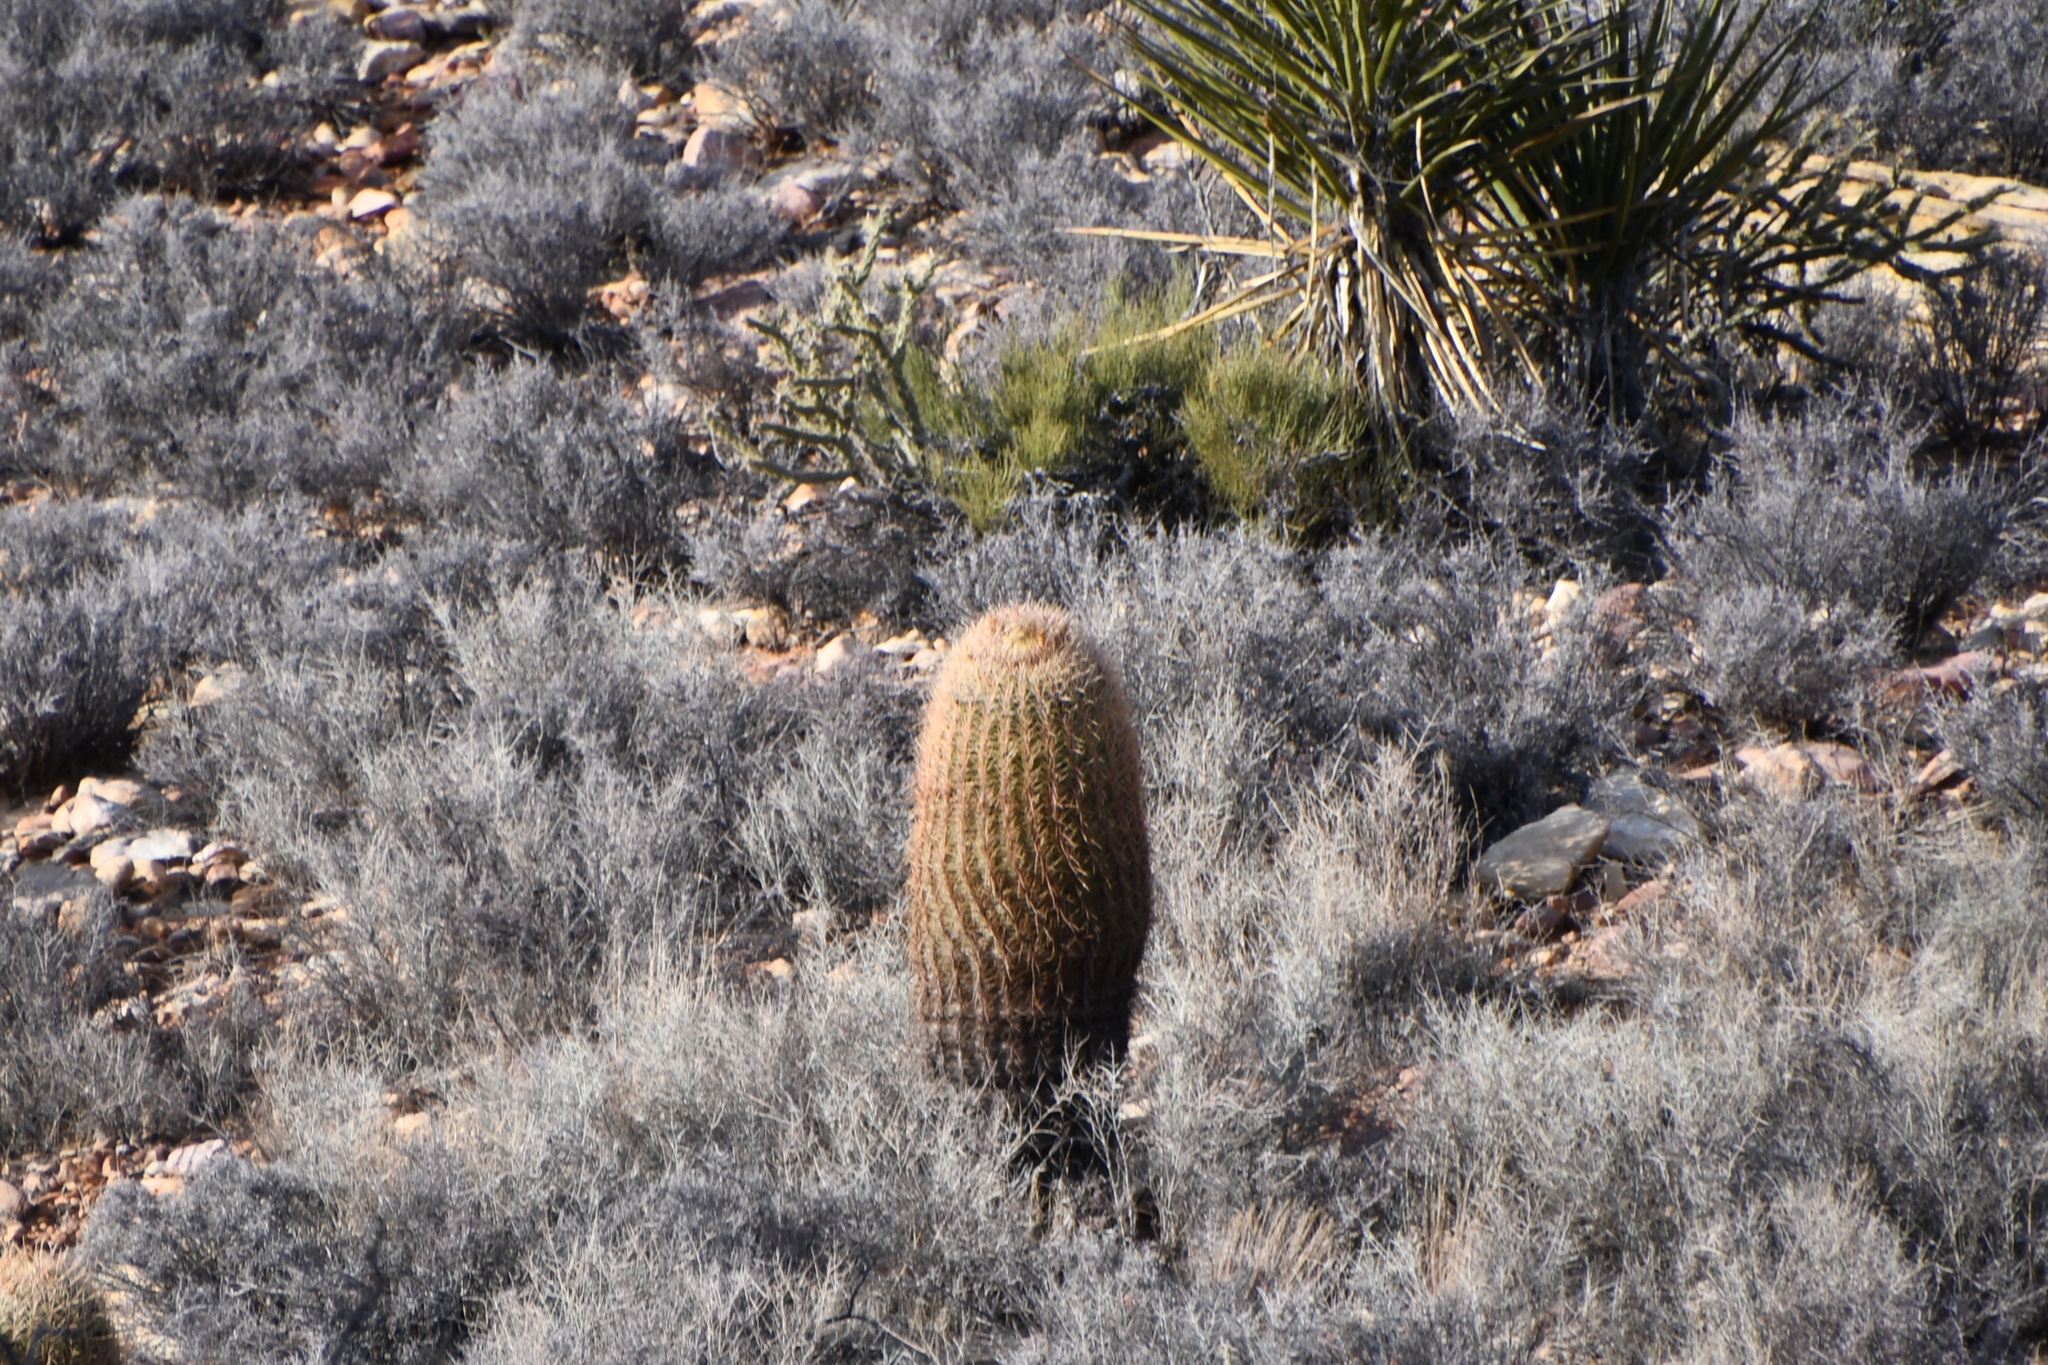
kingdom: Plantae
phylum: Tracheophyta
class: Magnoliopsida
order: Caryophyllales
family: Cactaceae
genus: Ferocactus
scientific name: Ferocactus cylindraceus
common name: California barrel cactus
